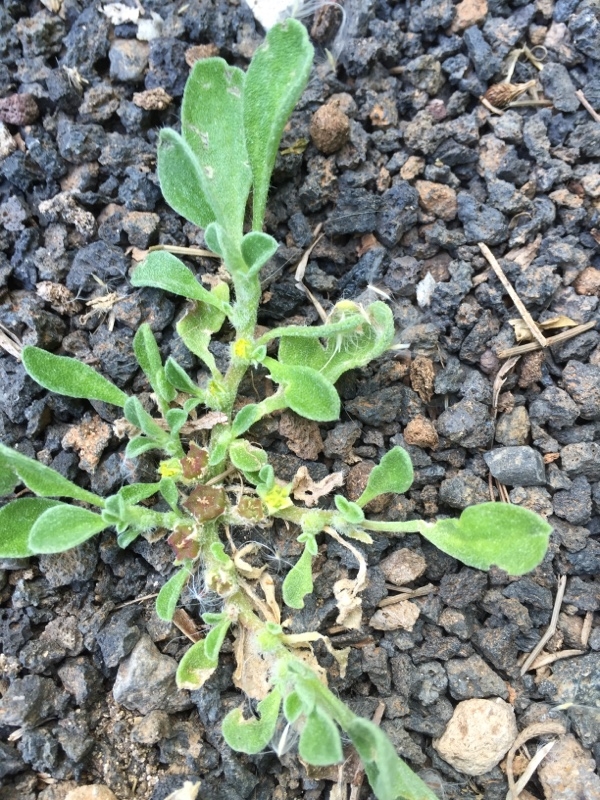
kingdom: Plantae
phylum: Tracheophyta
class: Magnoliopsida
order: Caryophyllales
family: Aizoaceae
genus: Aizoon
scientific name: Aizoon canariense
